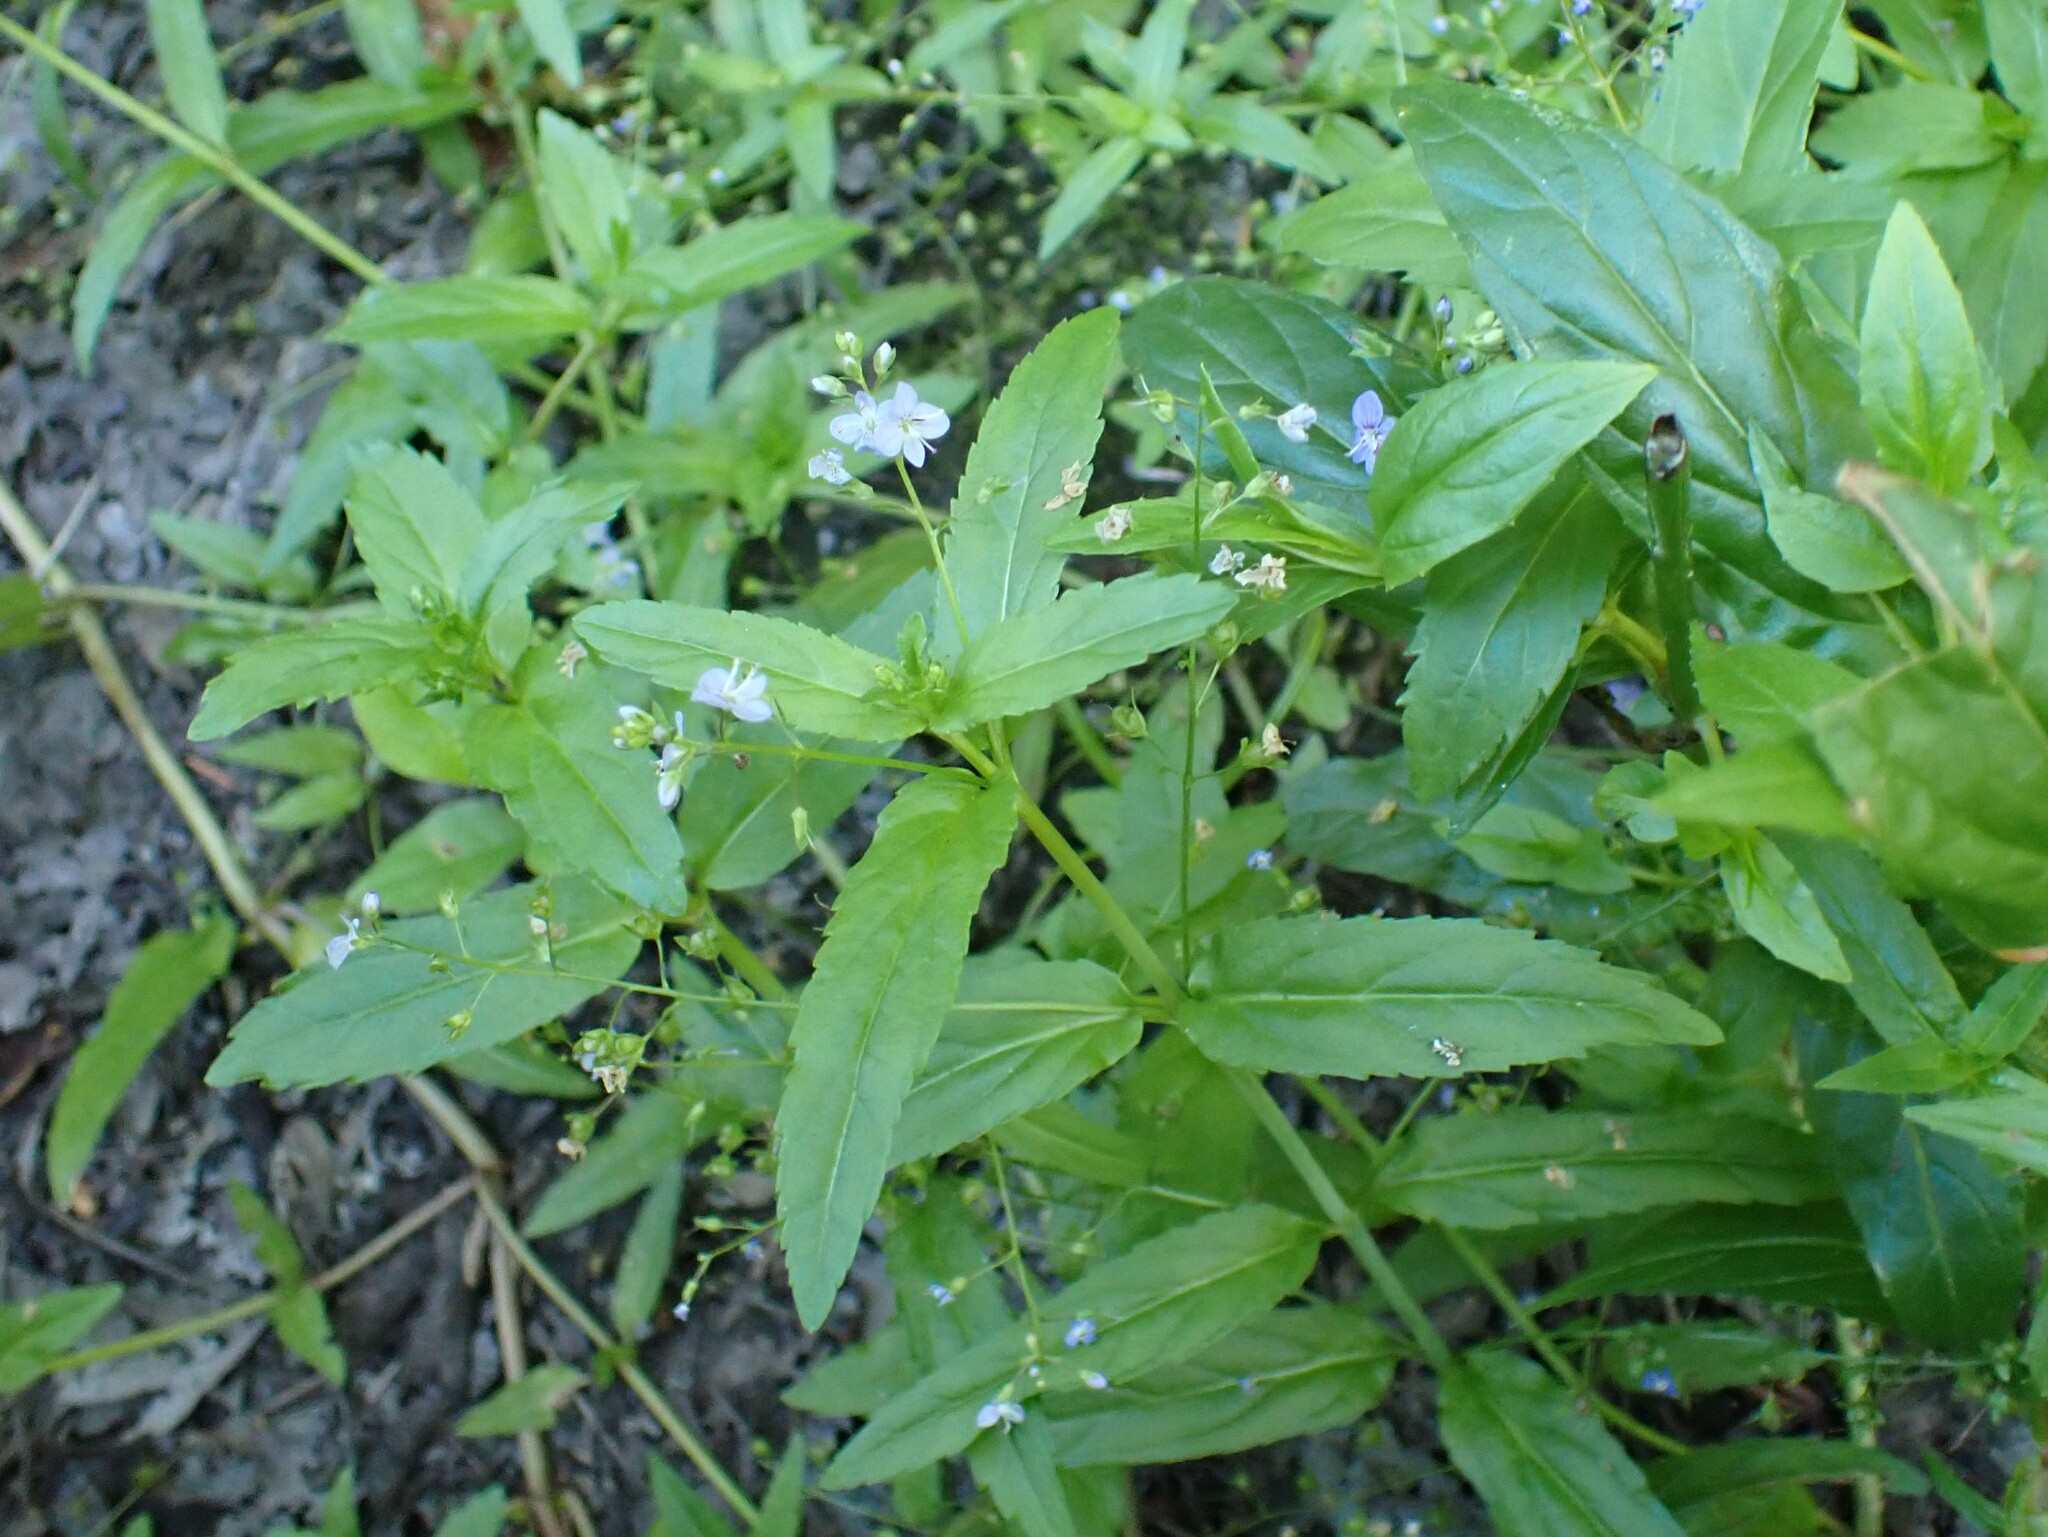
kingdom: Plantae
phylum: Tracheophyta
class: Magnoliopsida
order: Lamiales
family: Plantaginaceae
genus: Veronica
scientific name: Veronica americana
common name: American brooklime
